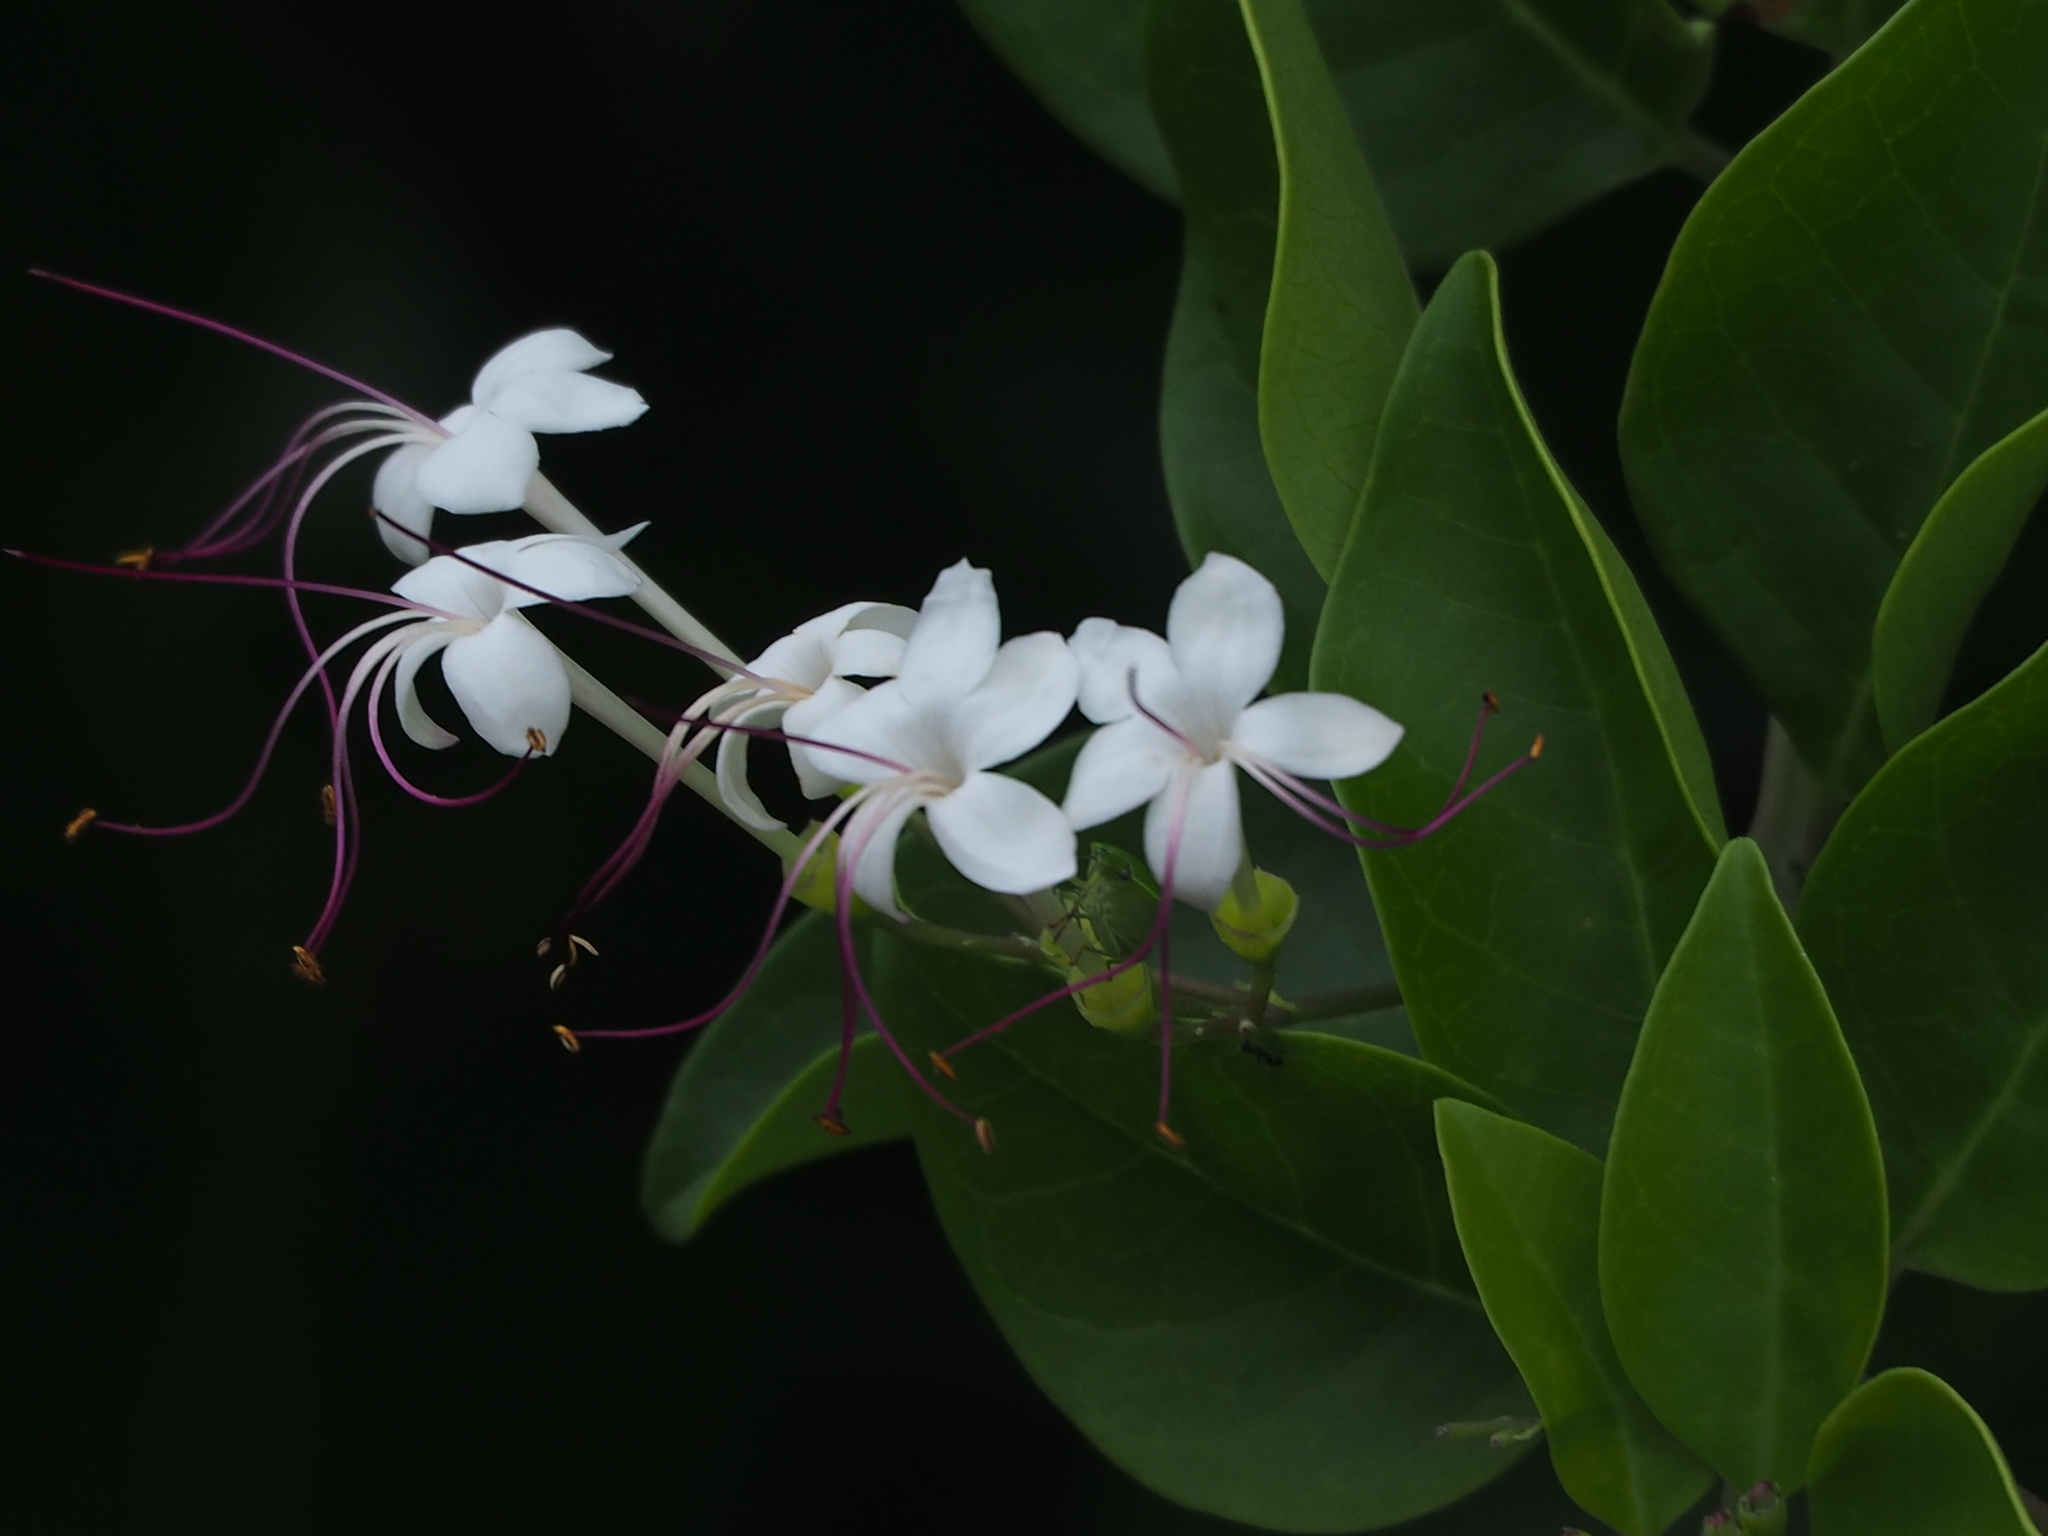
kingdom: Plantae
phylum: Tracheophyta
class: Magnoliopsida
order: Lamiales
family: Lamiaceae
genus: Volkameria
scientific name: Volkameria inermis
